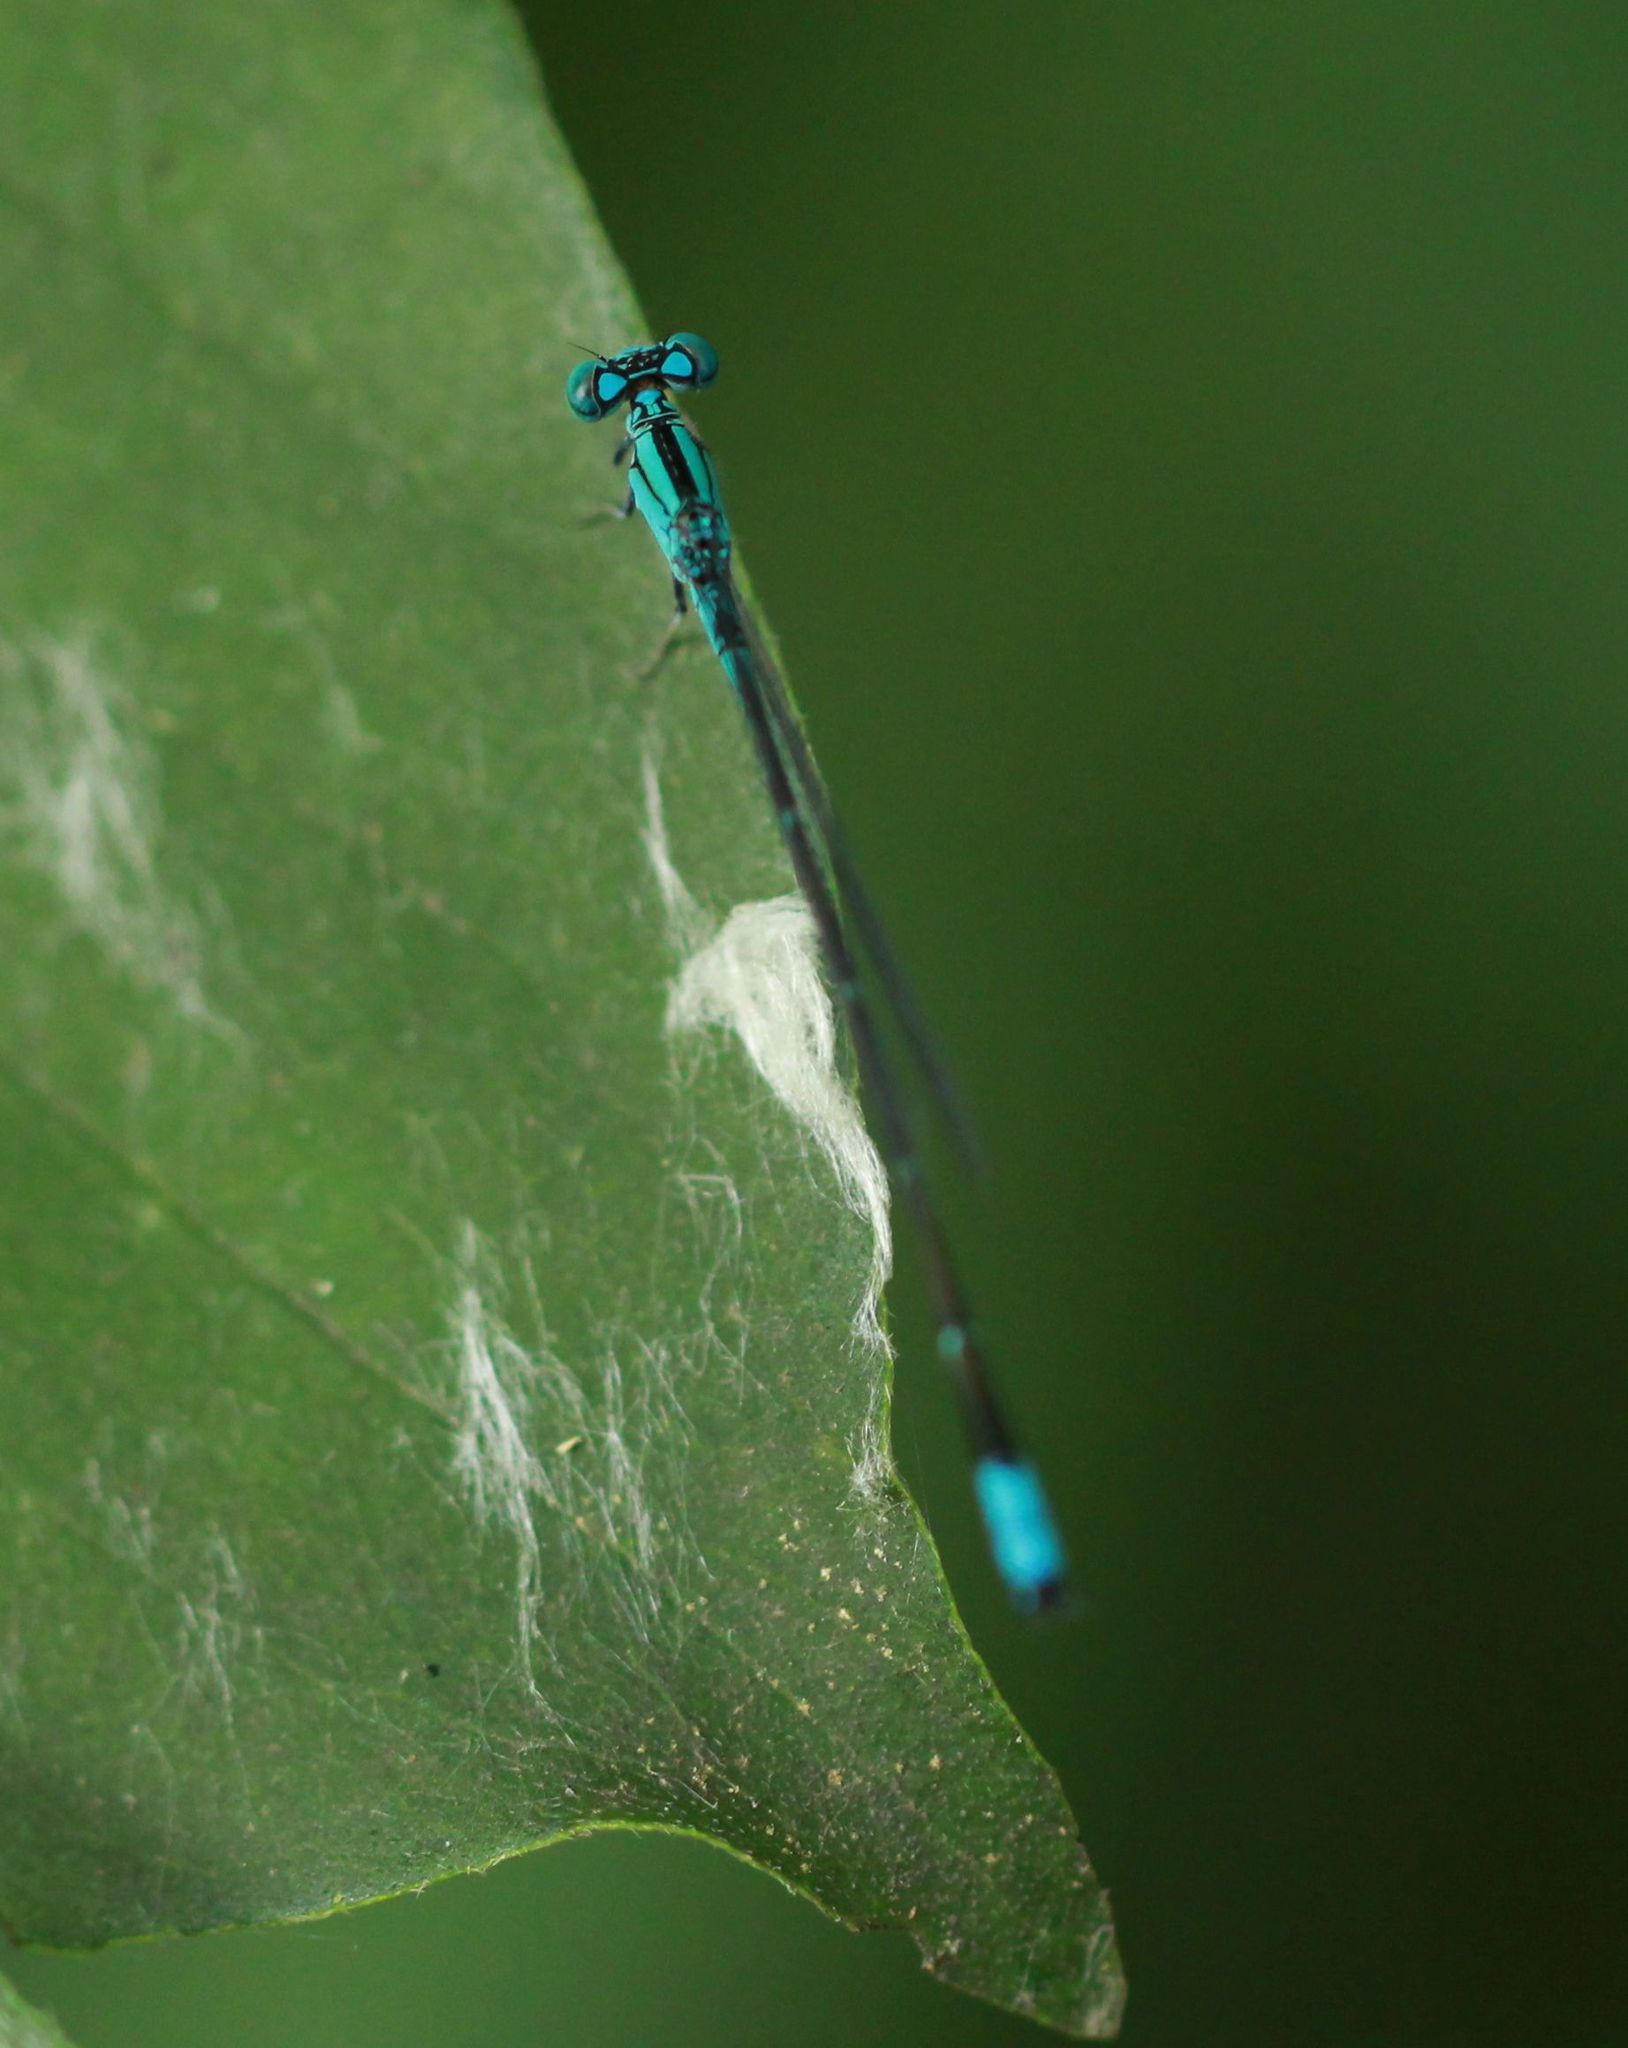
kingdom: Animalia
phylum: Arthropoda
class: Insecta
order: Odonata
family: Coenagrionidae
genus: Enallagma
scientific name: Enallagma traviatum
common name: Slender bluet
